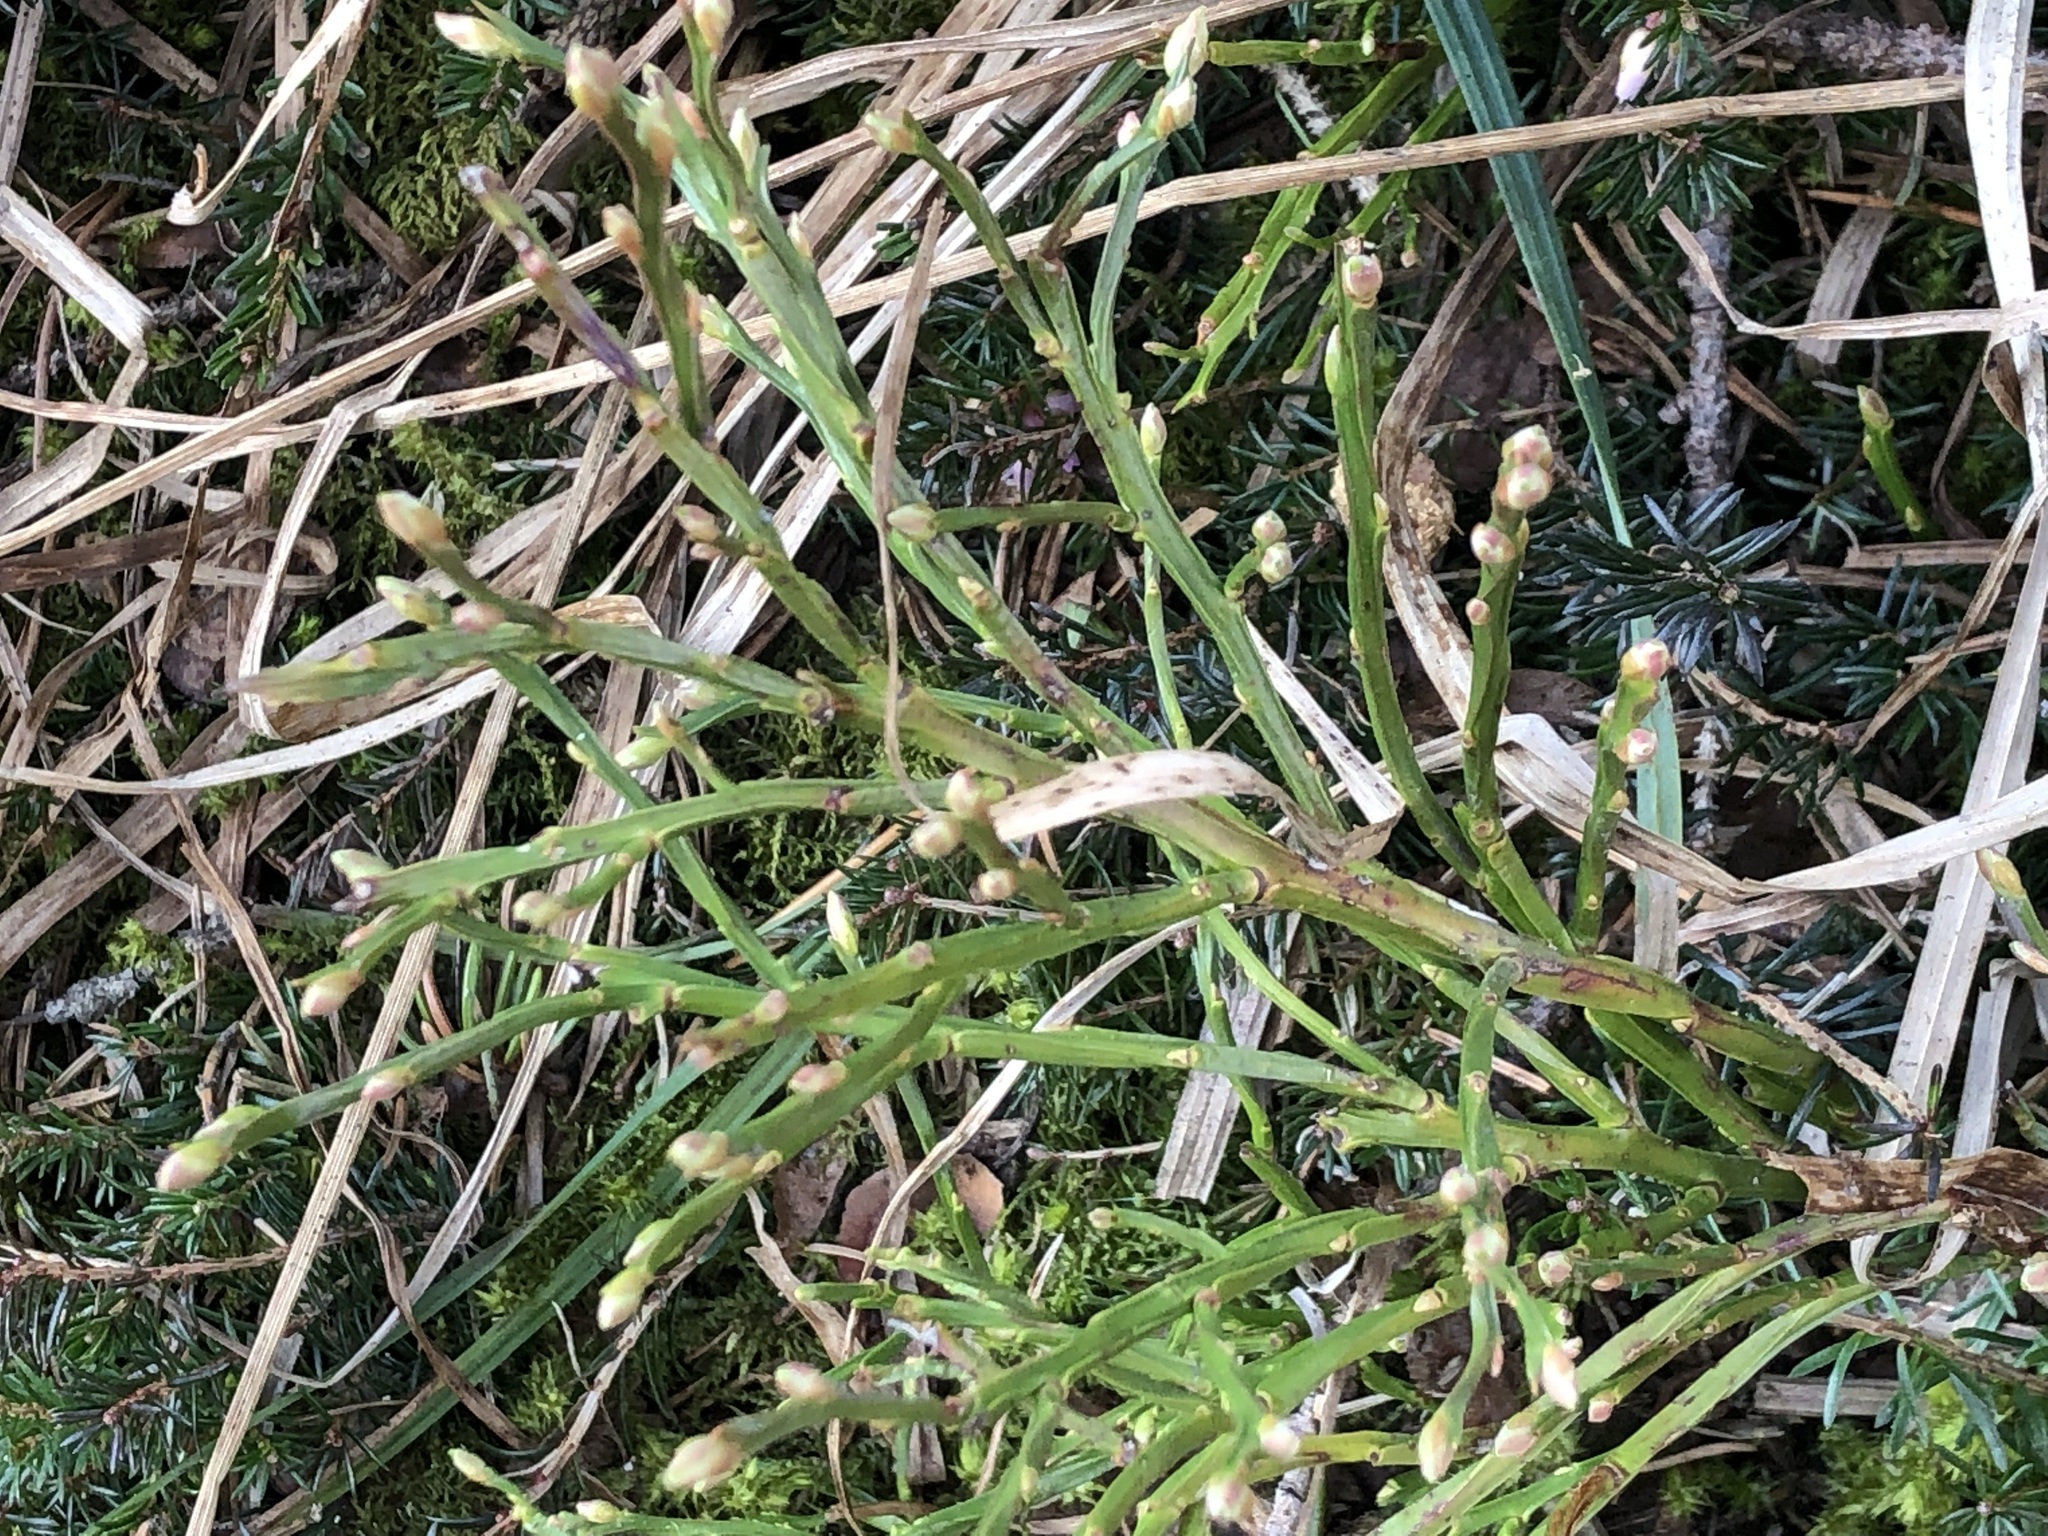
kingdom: Plantae
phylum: Tracheophyta
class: Magnoliopsida
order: Ericales
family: Ericaceae
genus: Vaccinium
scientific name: Vaccinium myrtillus
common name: Bilberry
